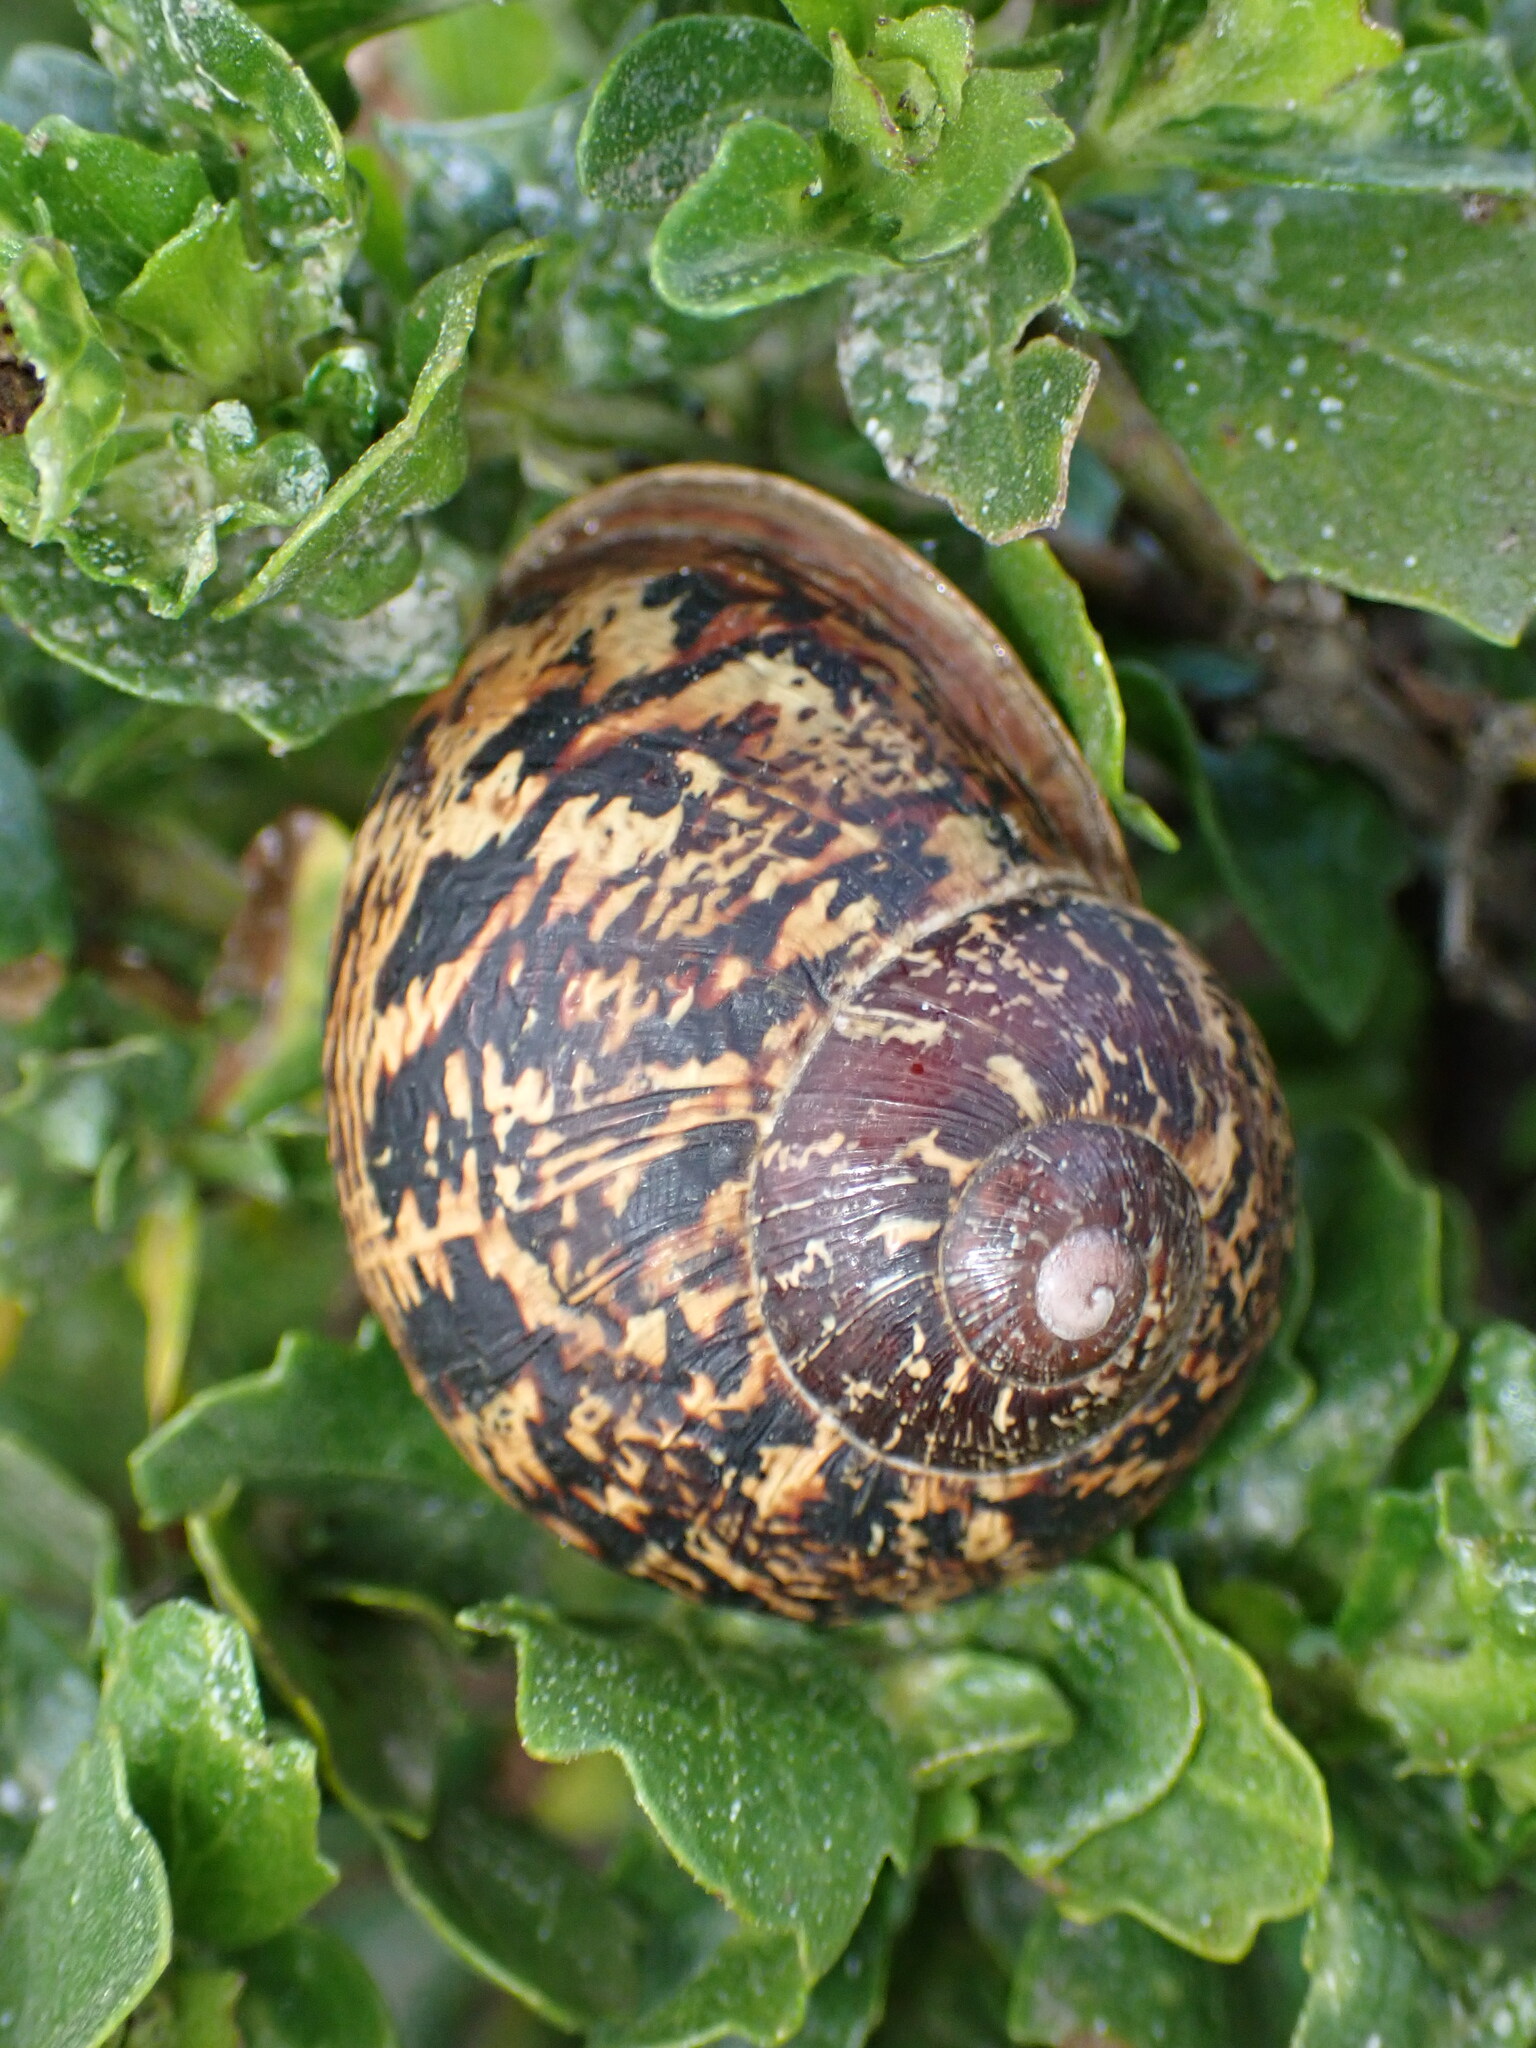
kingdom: Animalia
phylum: Mollusca
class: Gastropoda
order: Stylommatophora
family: Helicidae
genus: Cornu
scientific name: Cornu aspersum
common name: Brown garden snail
